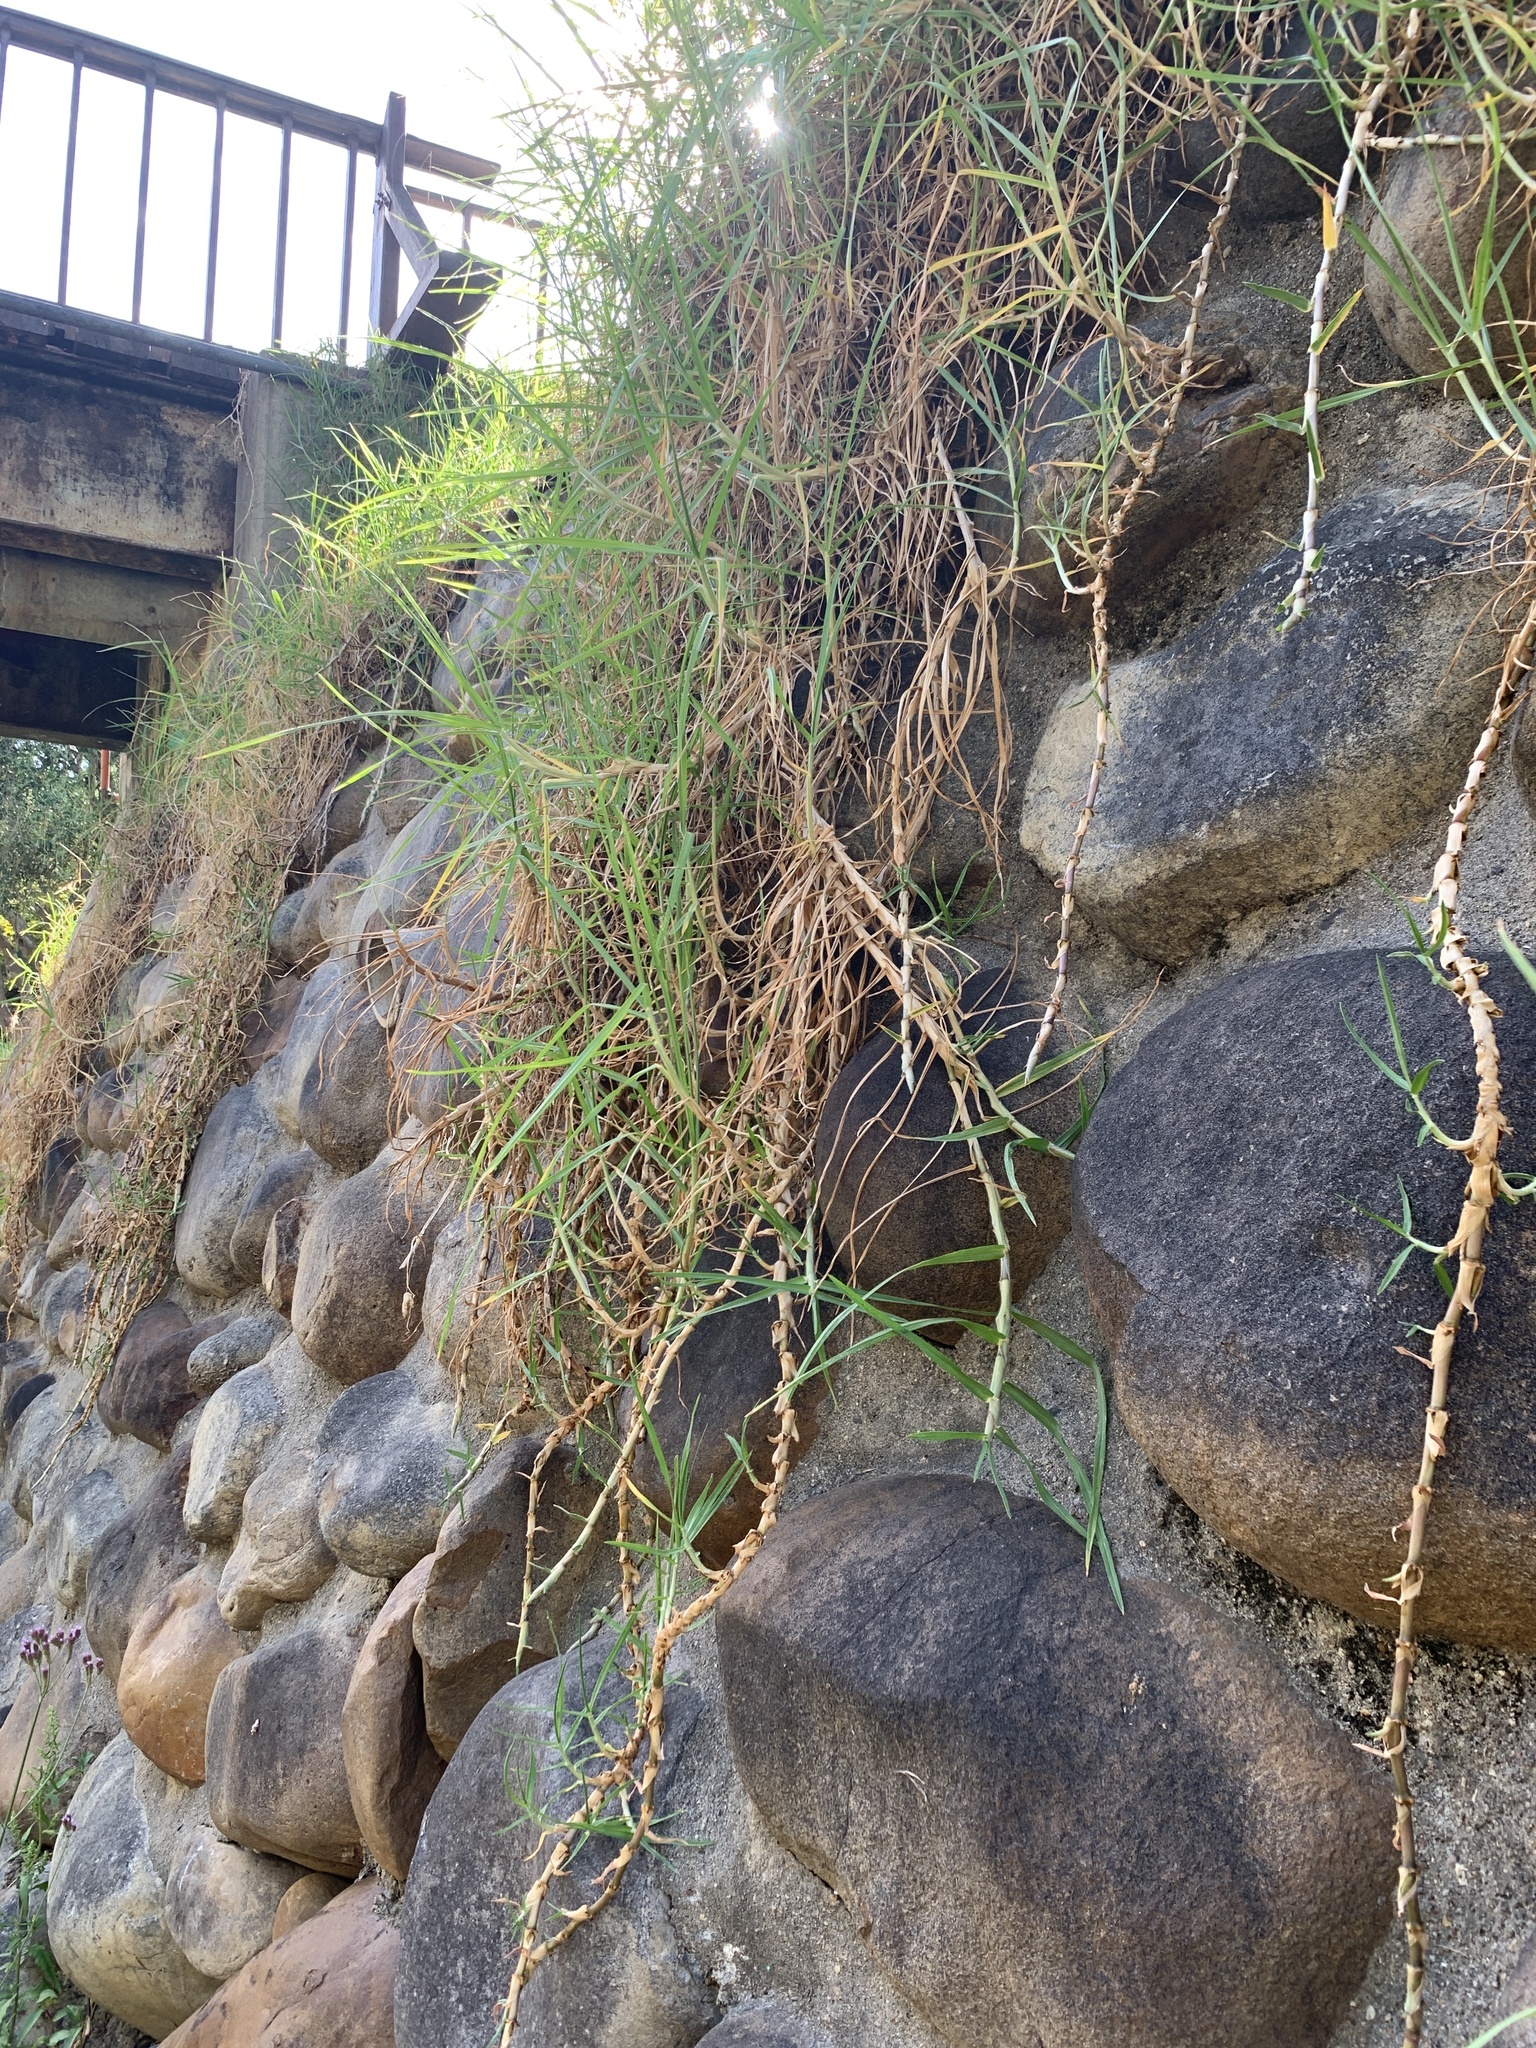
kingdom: Plantae
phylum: Tracheophyta
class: Liliopsida
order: Poales
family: Poaceae
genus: Cenchrus
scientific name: Cenchrus clandestinus
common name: Kikuyugrass
